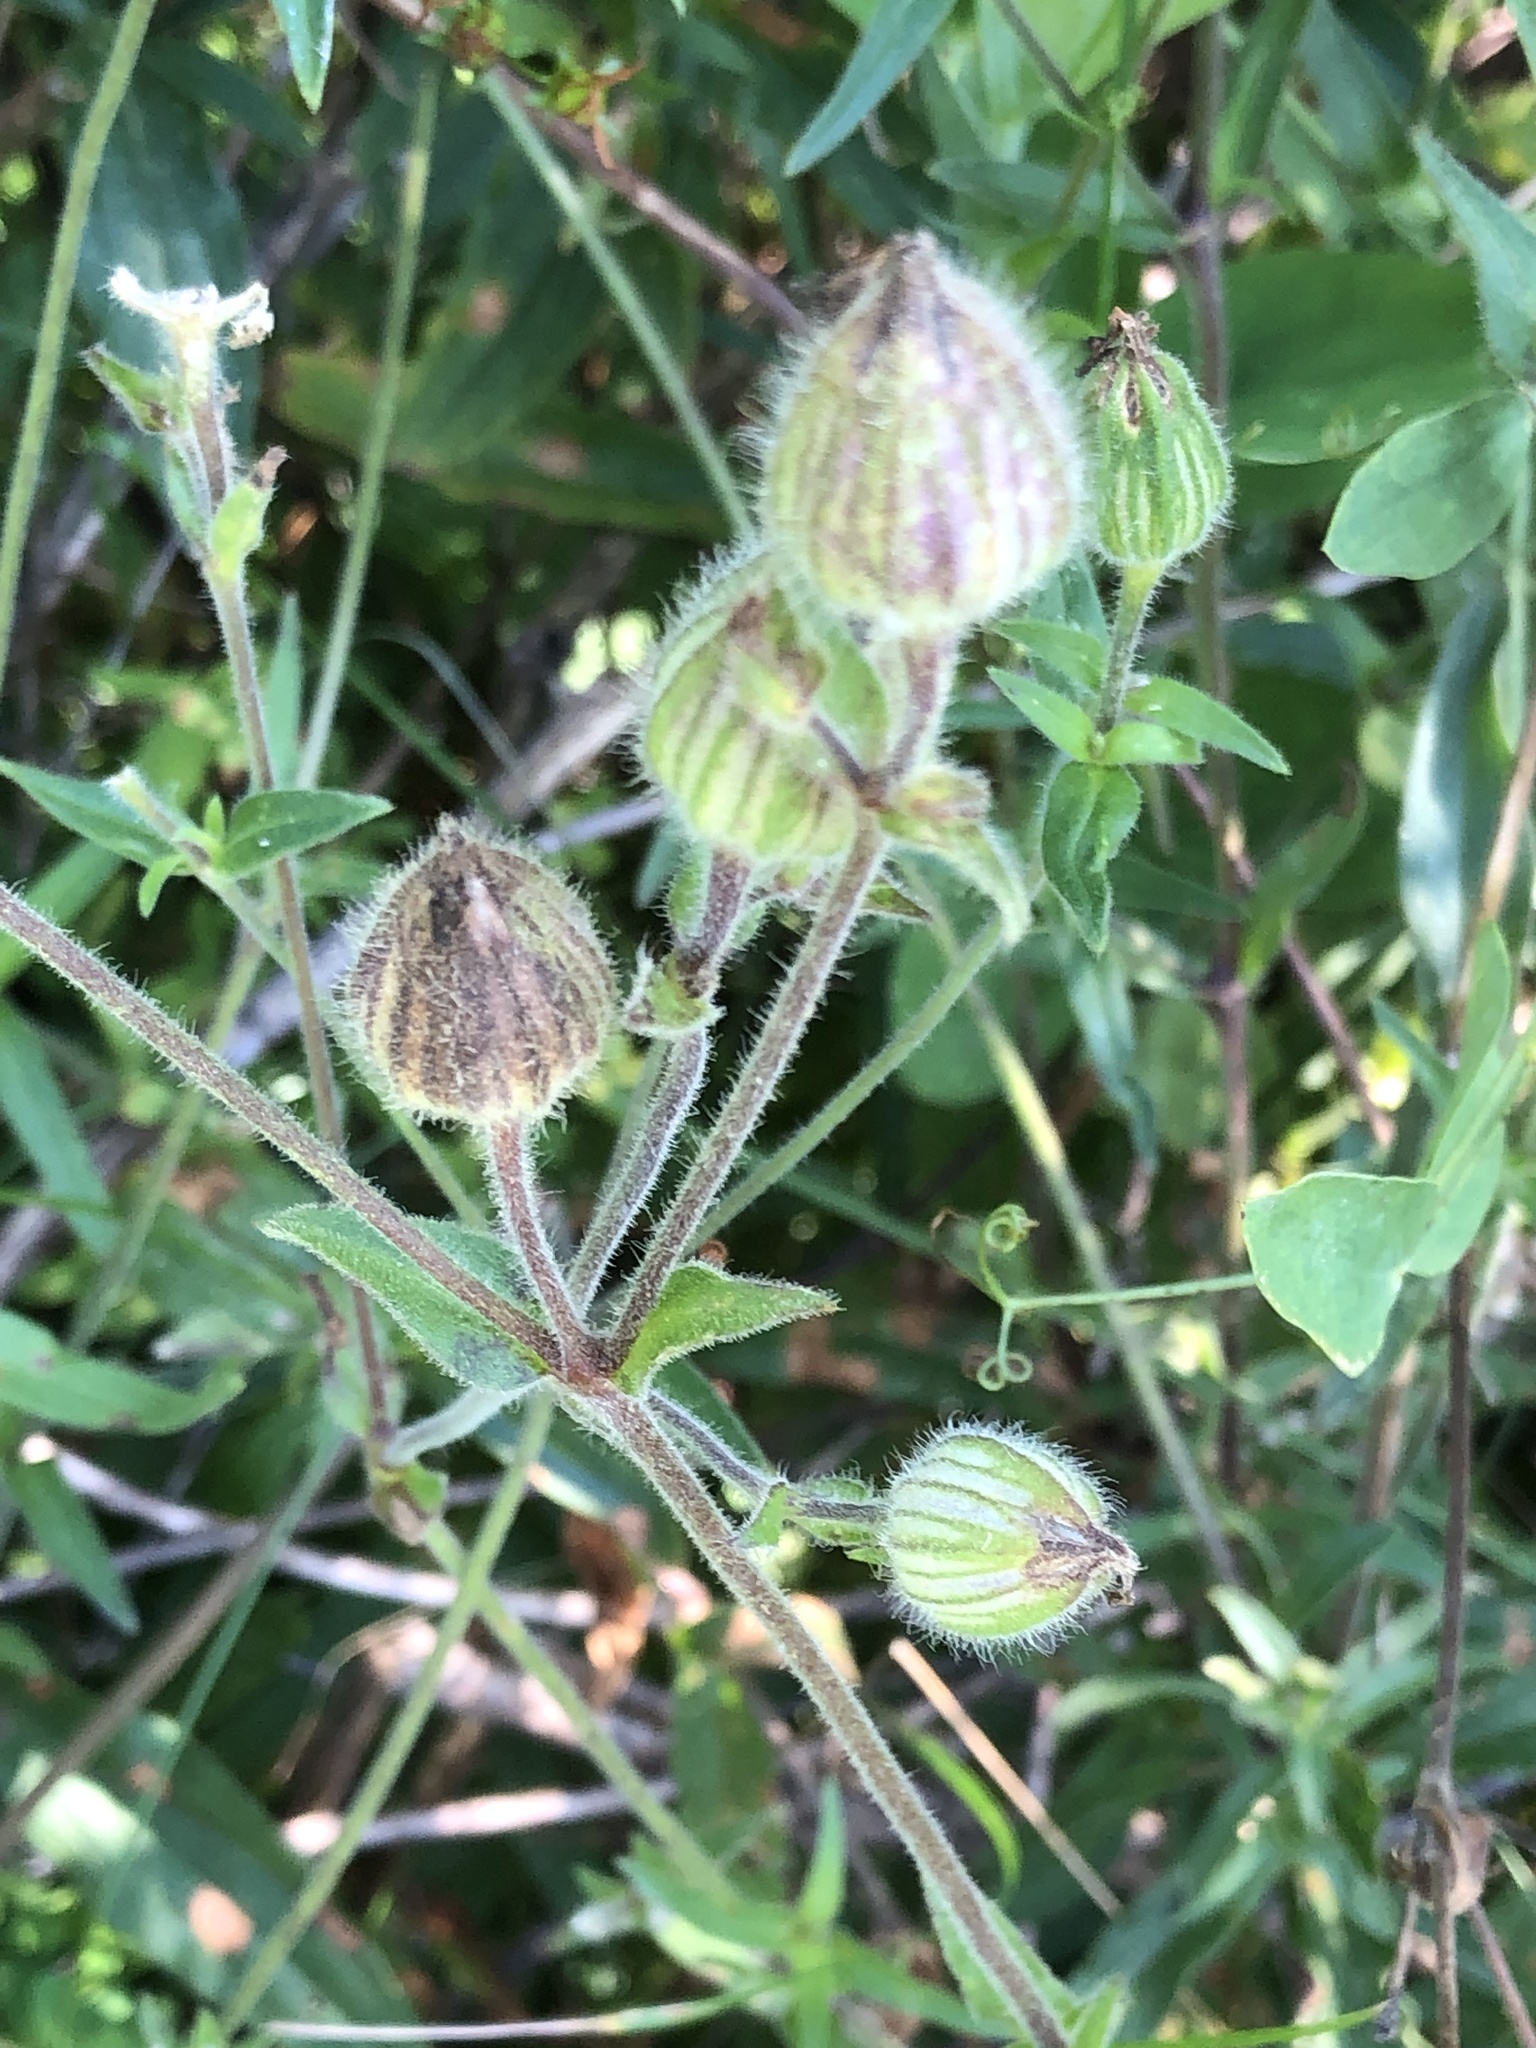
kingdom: Plantae
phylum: Tracheophyta
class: Magnoliopsida
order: Caryophyllales
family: Caryophyllaceae
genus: Silene
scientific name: Silene latifolia
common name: White campion
